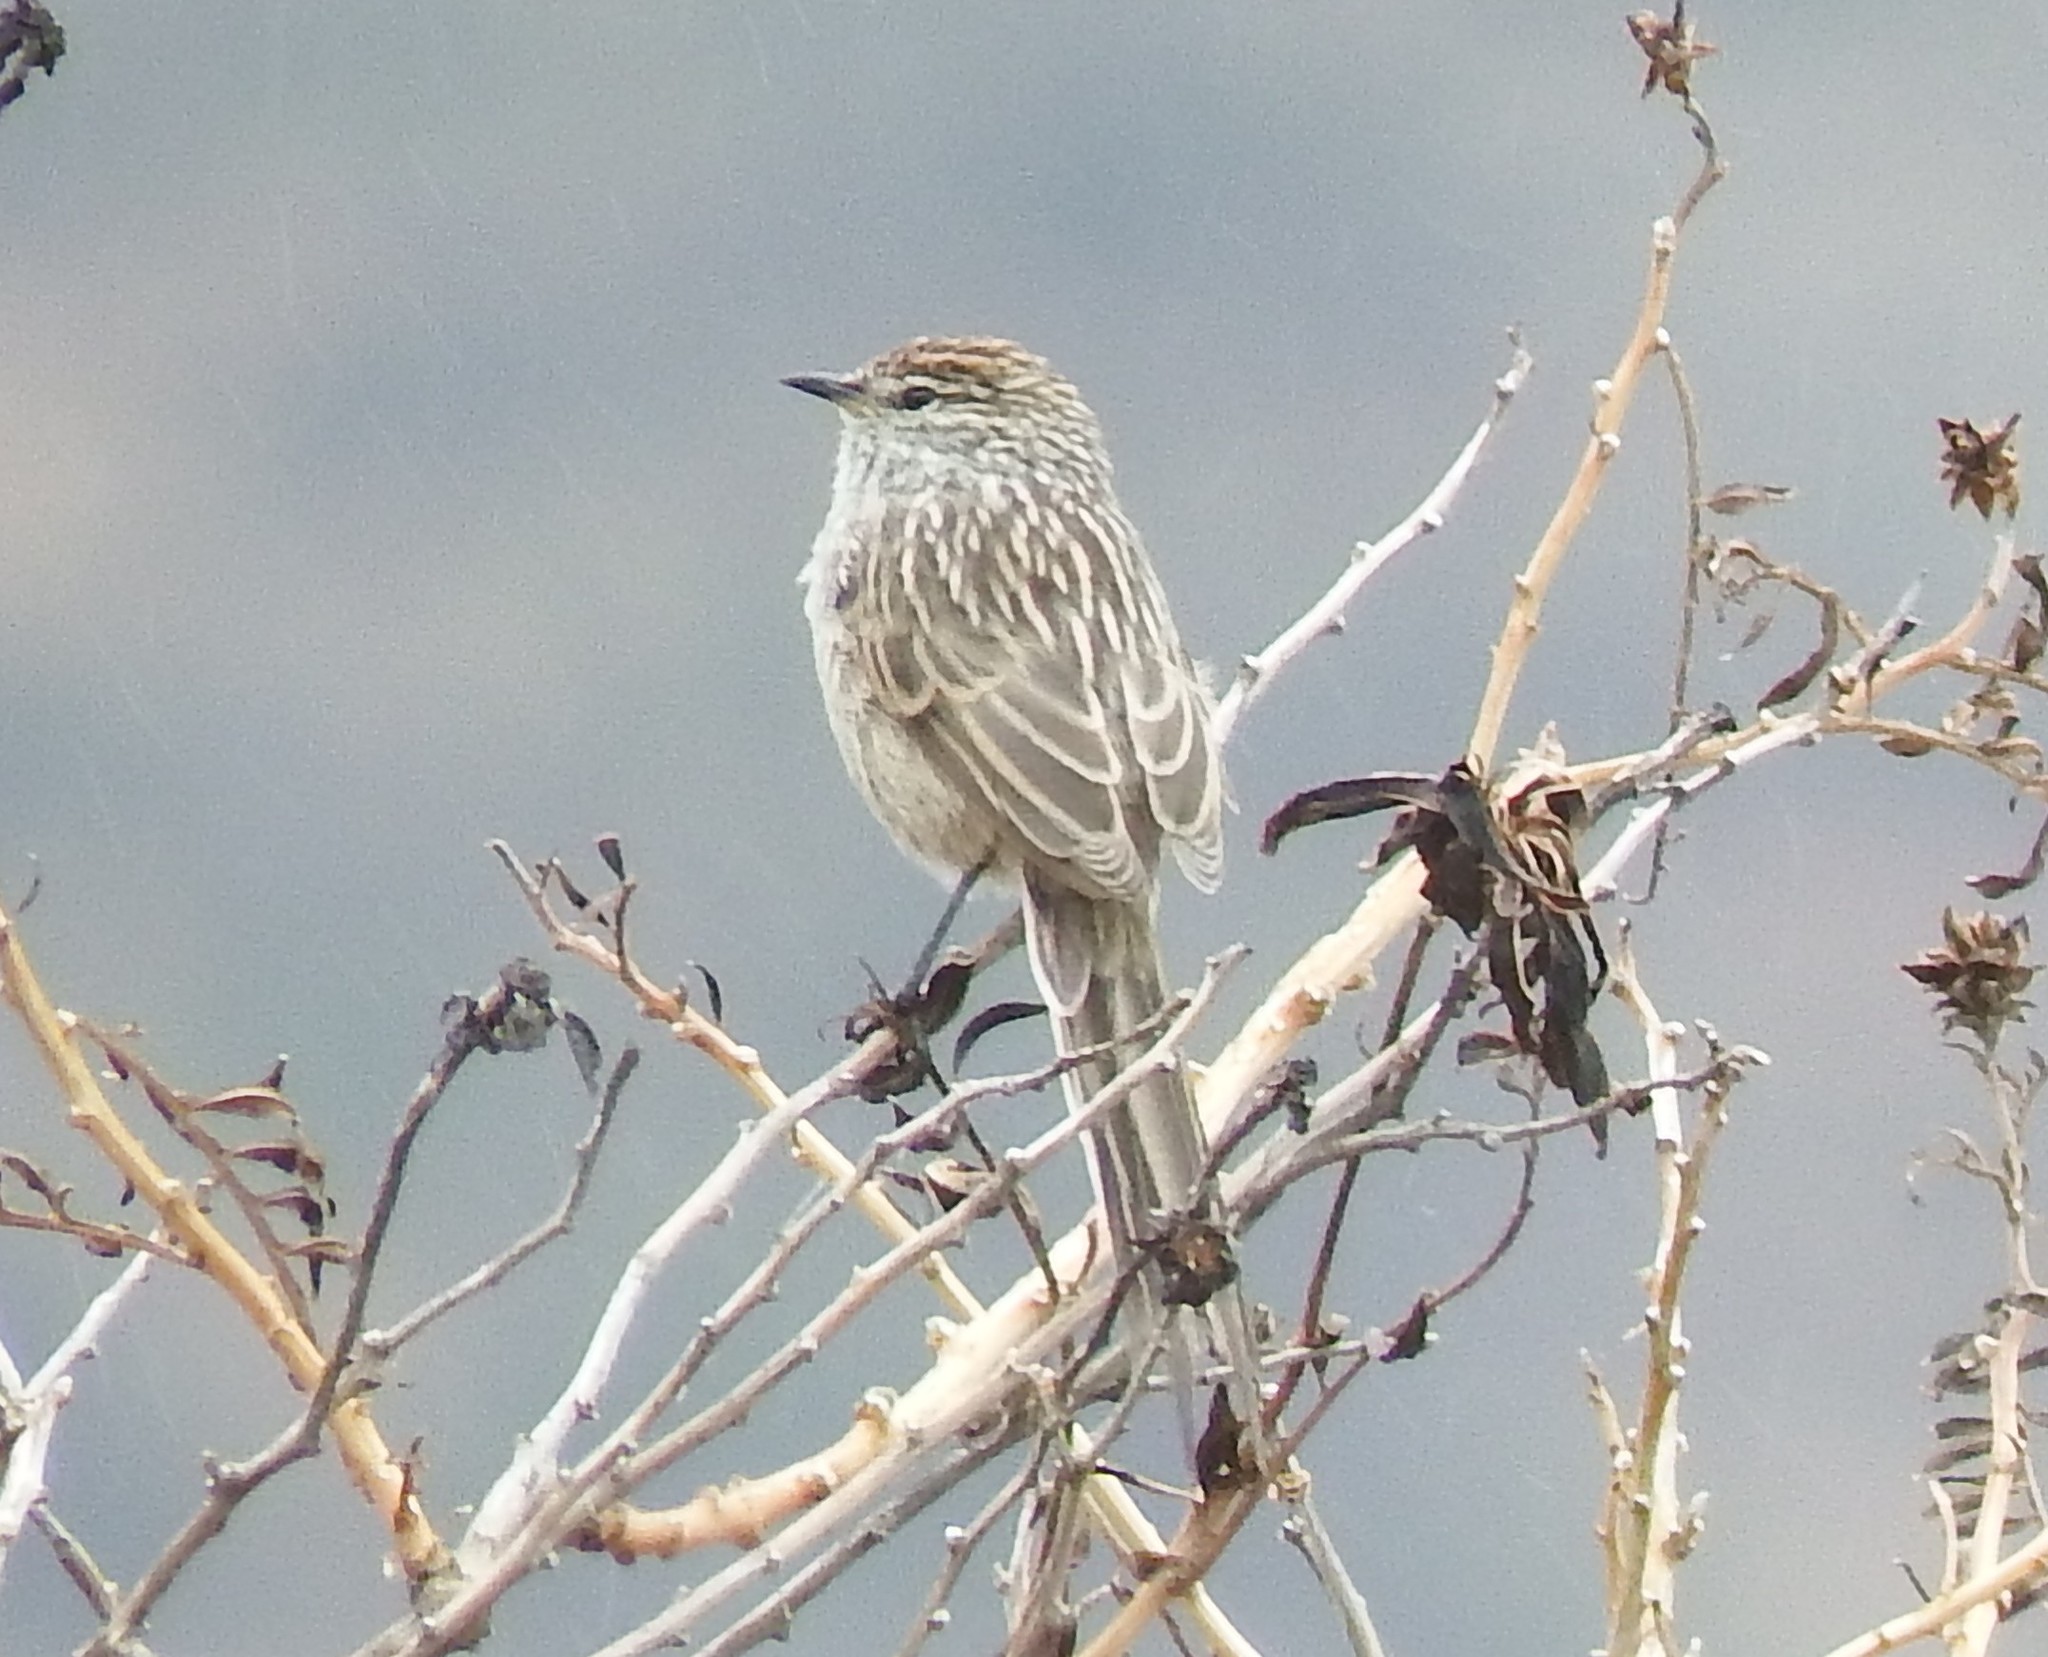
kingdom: Animalia
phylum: Chordata
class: Aves
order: Passeriformes
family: Furnariidae
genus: Leptasthenura
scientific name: Leptasthenura striata
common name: Streak-backed tit-spinetail
